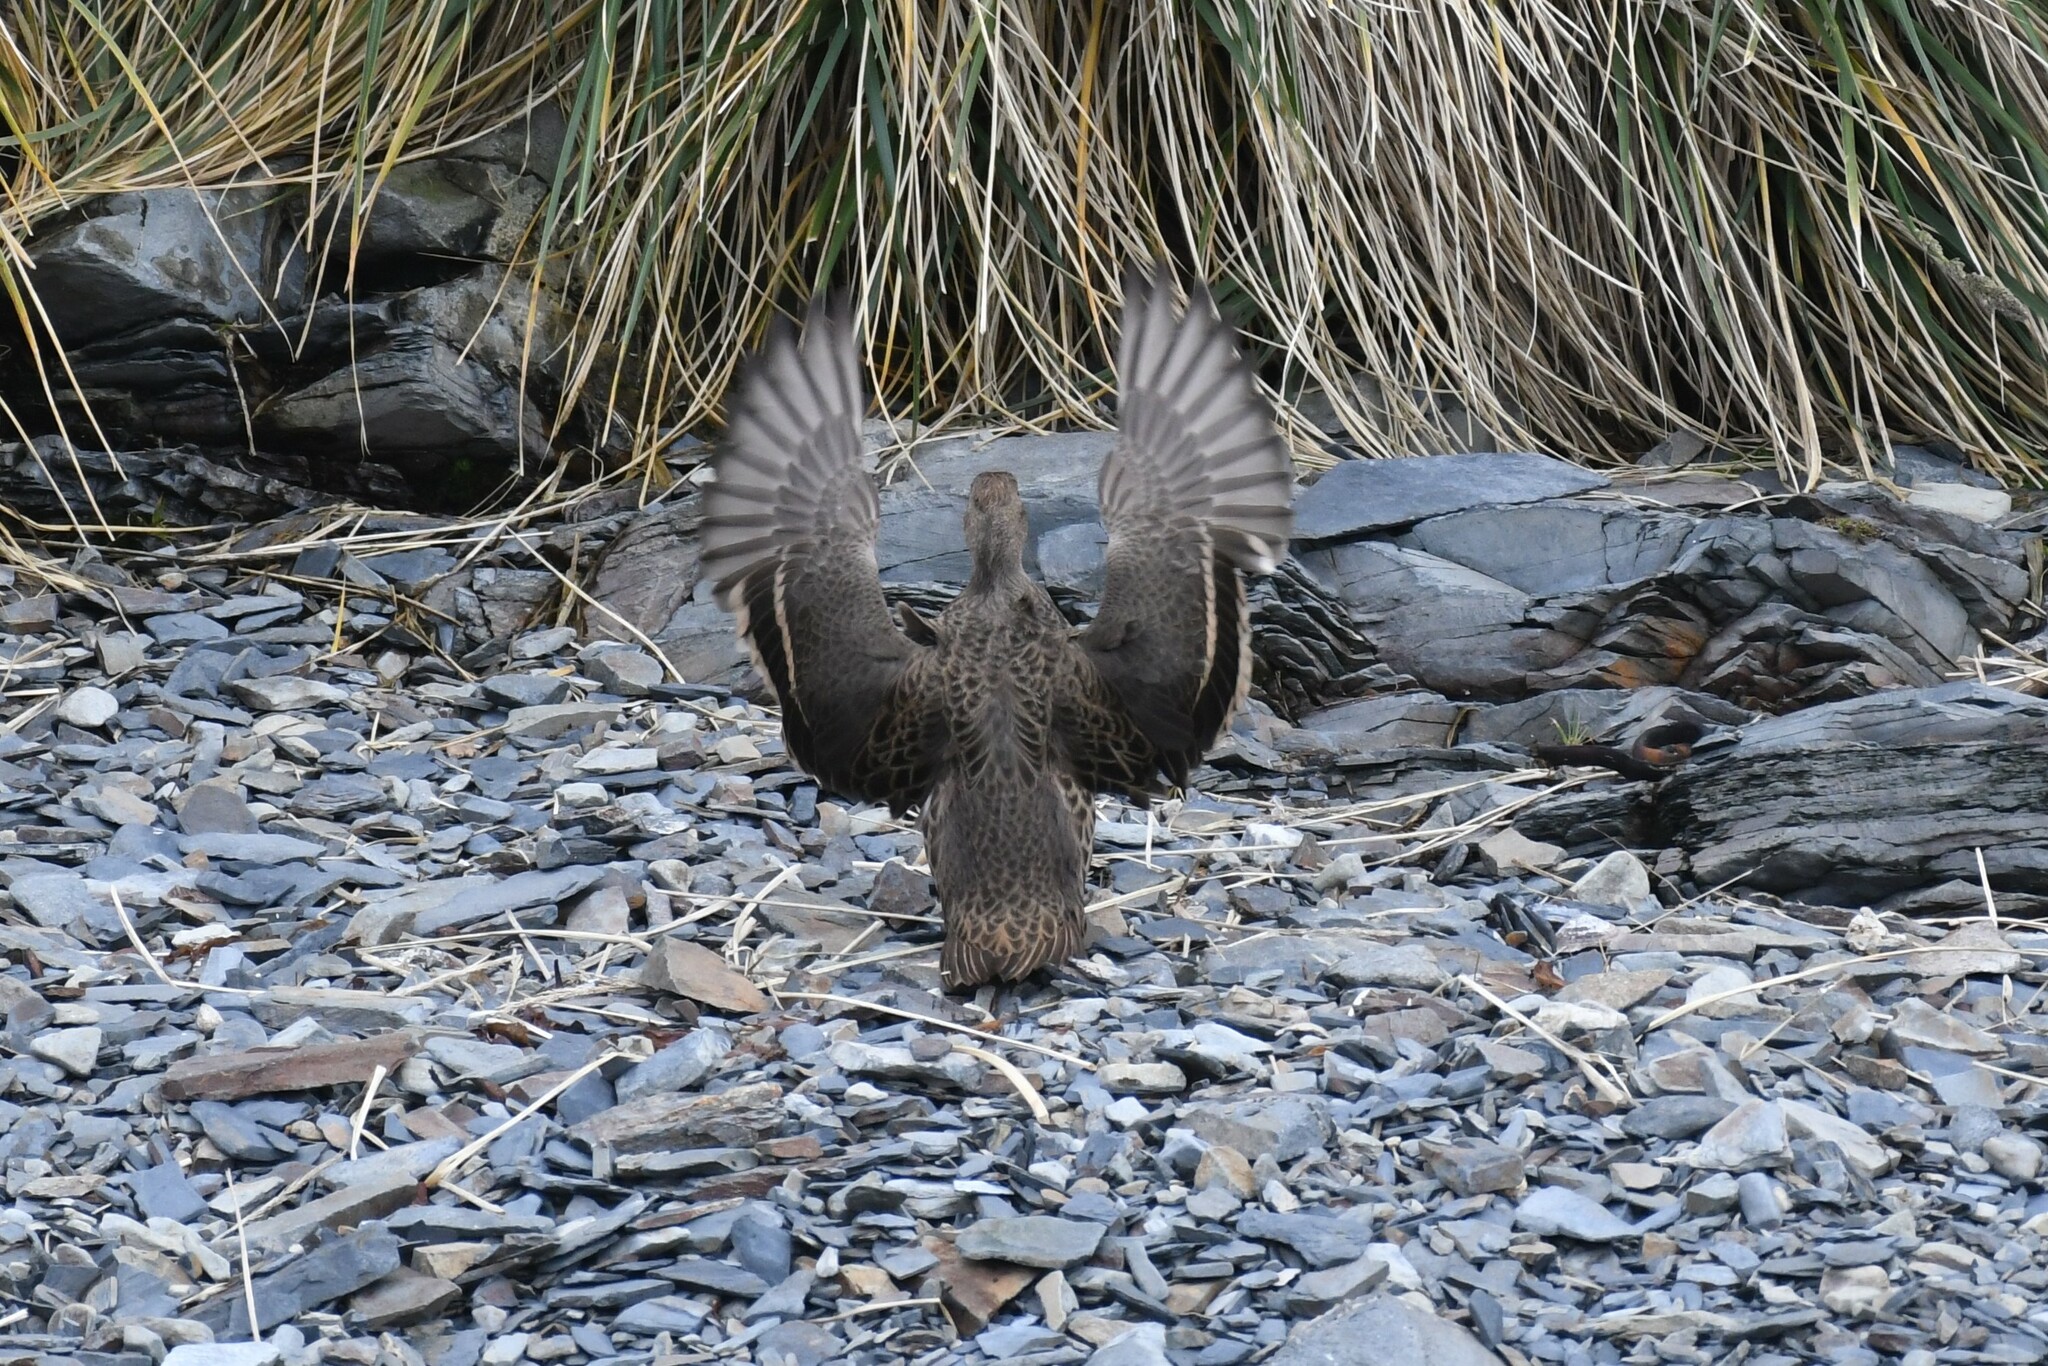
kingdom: Animalia
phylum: Chordata
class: Aves
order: Anseriformes
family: Anatidae
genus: Anas
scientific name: Anas georgica
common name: Yellow-billed pintail
